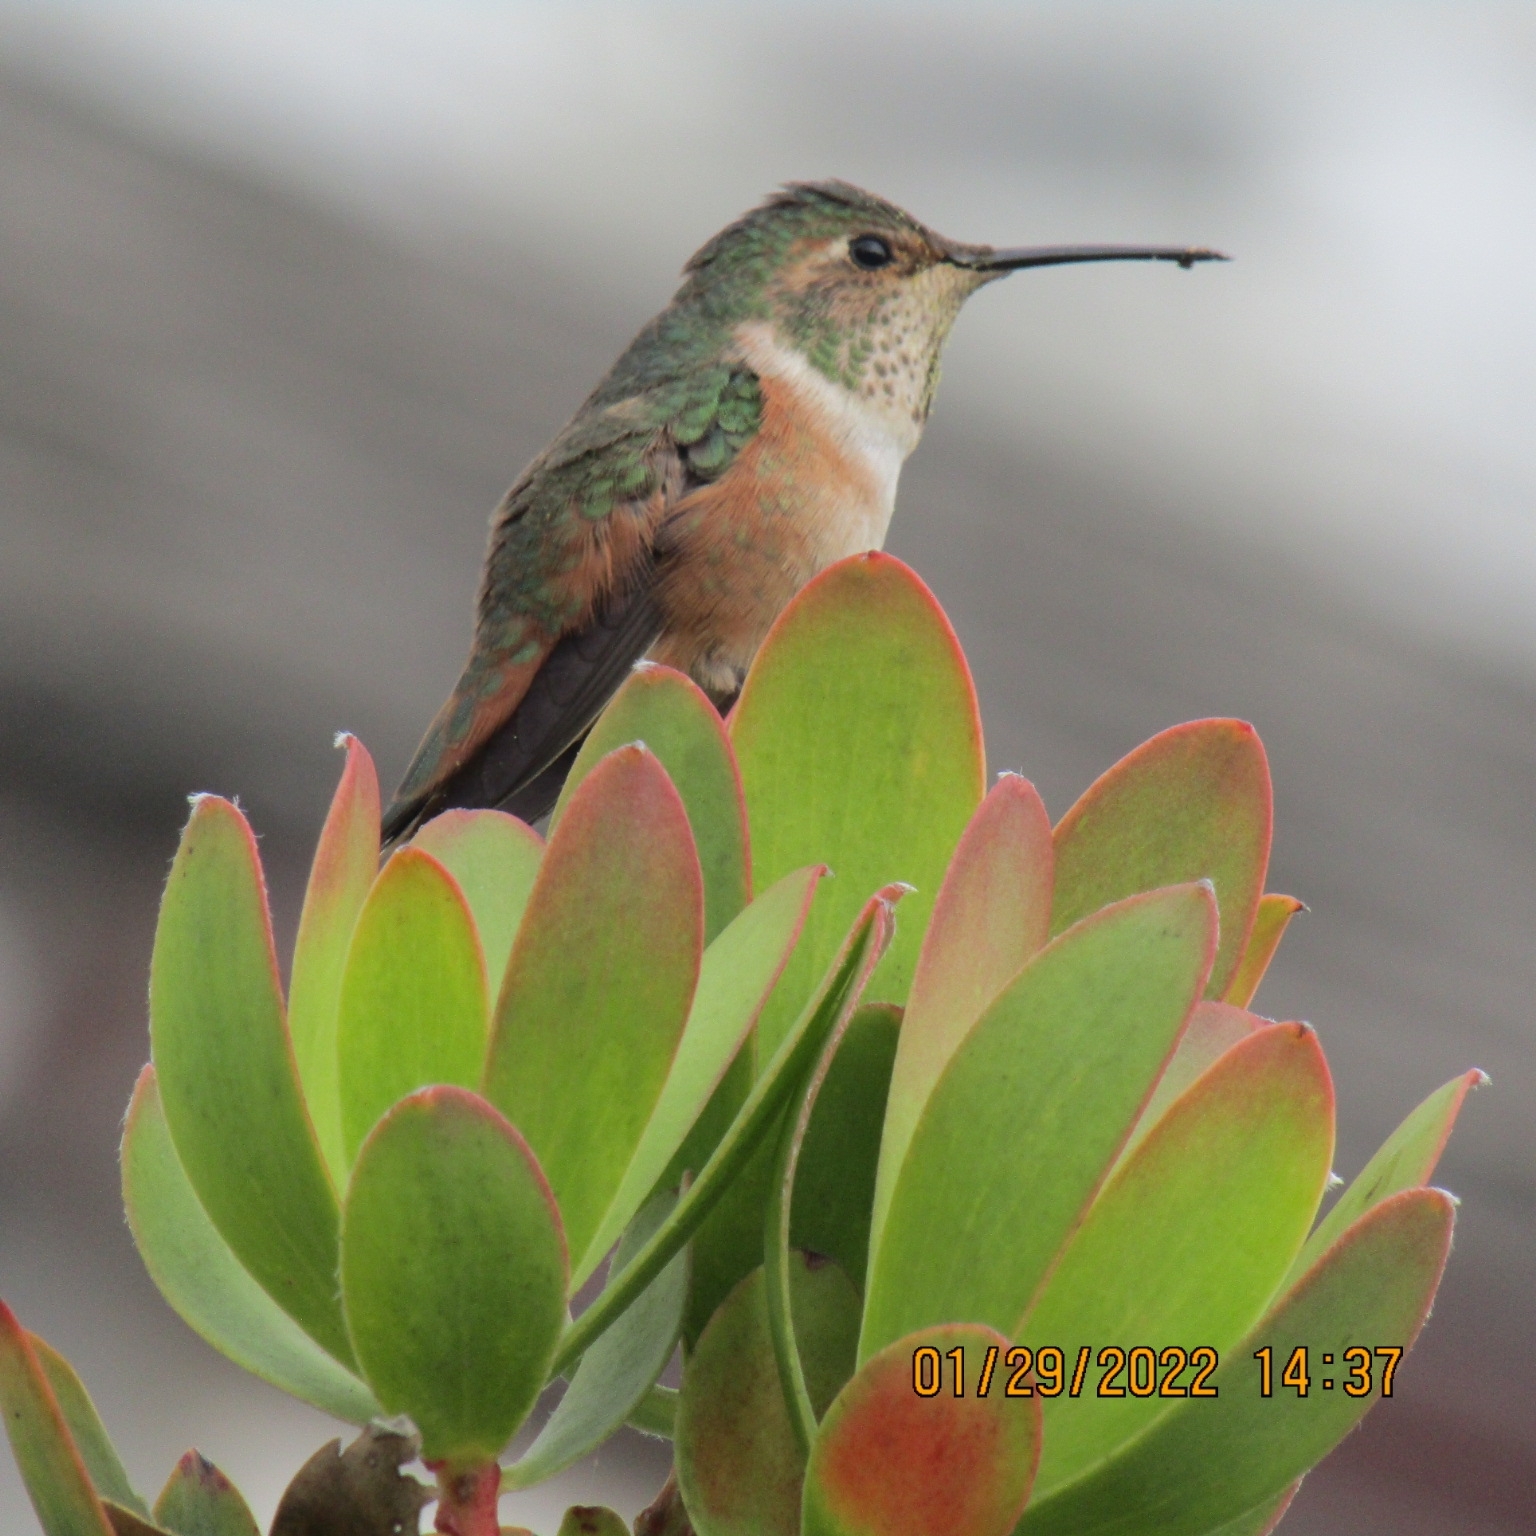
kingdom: Animalia
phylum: Chordata
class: Aves
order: Apodiformes
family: Trochilidae
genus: Selasphorus
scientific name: Selasphorus sasin
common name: Allen's hummingbird
